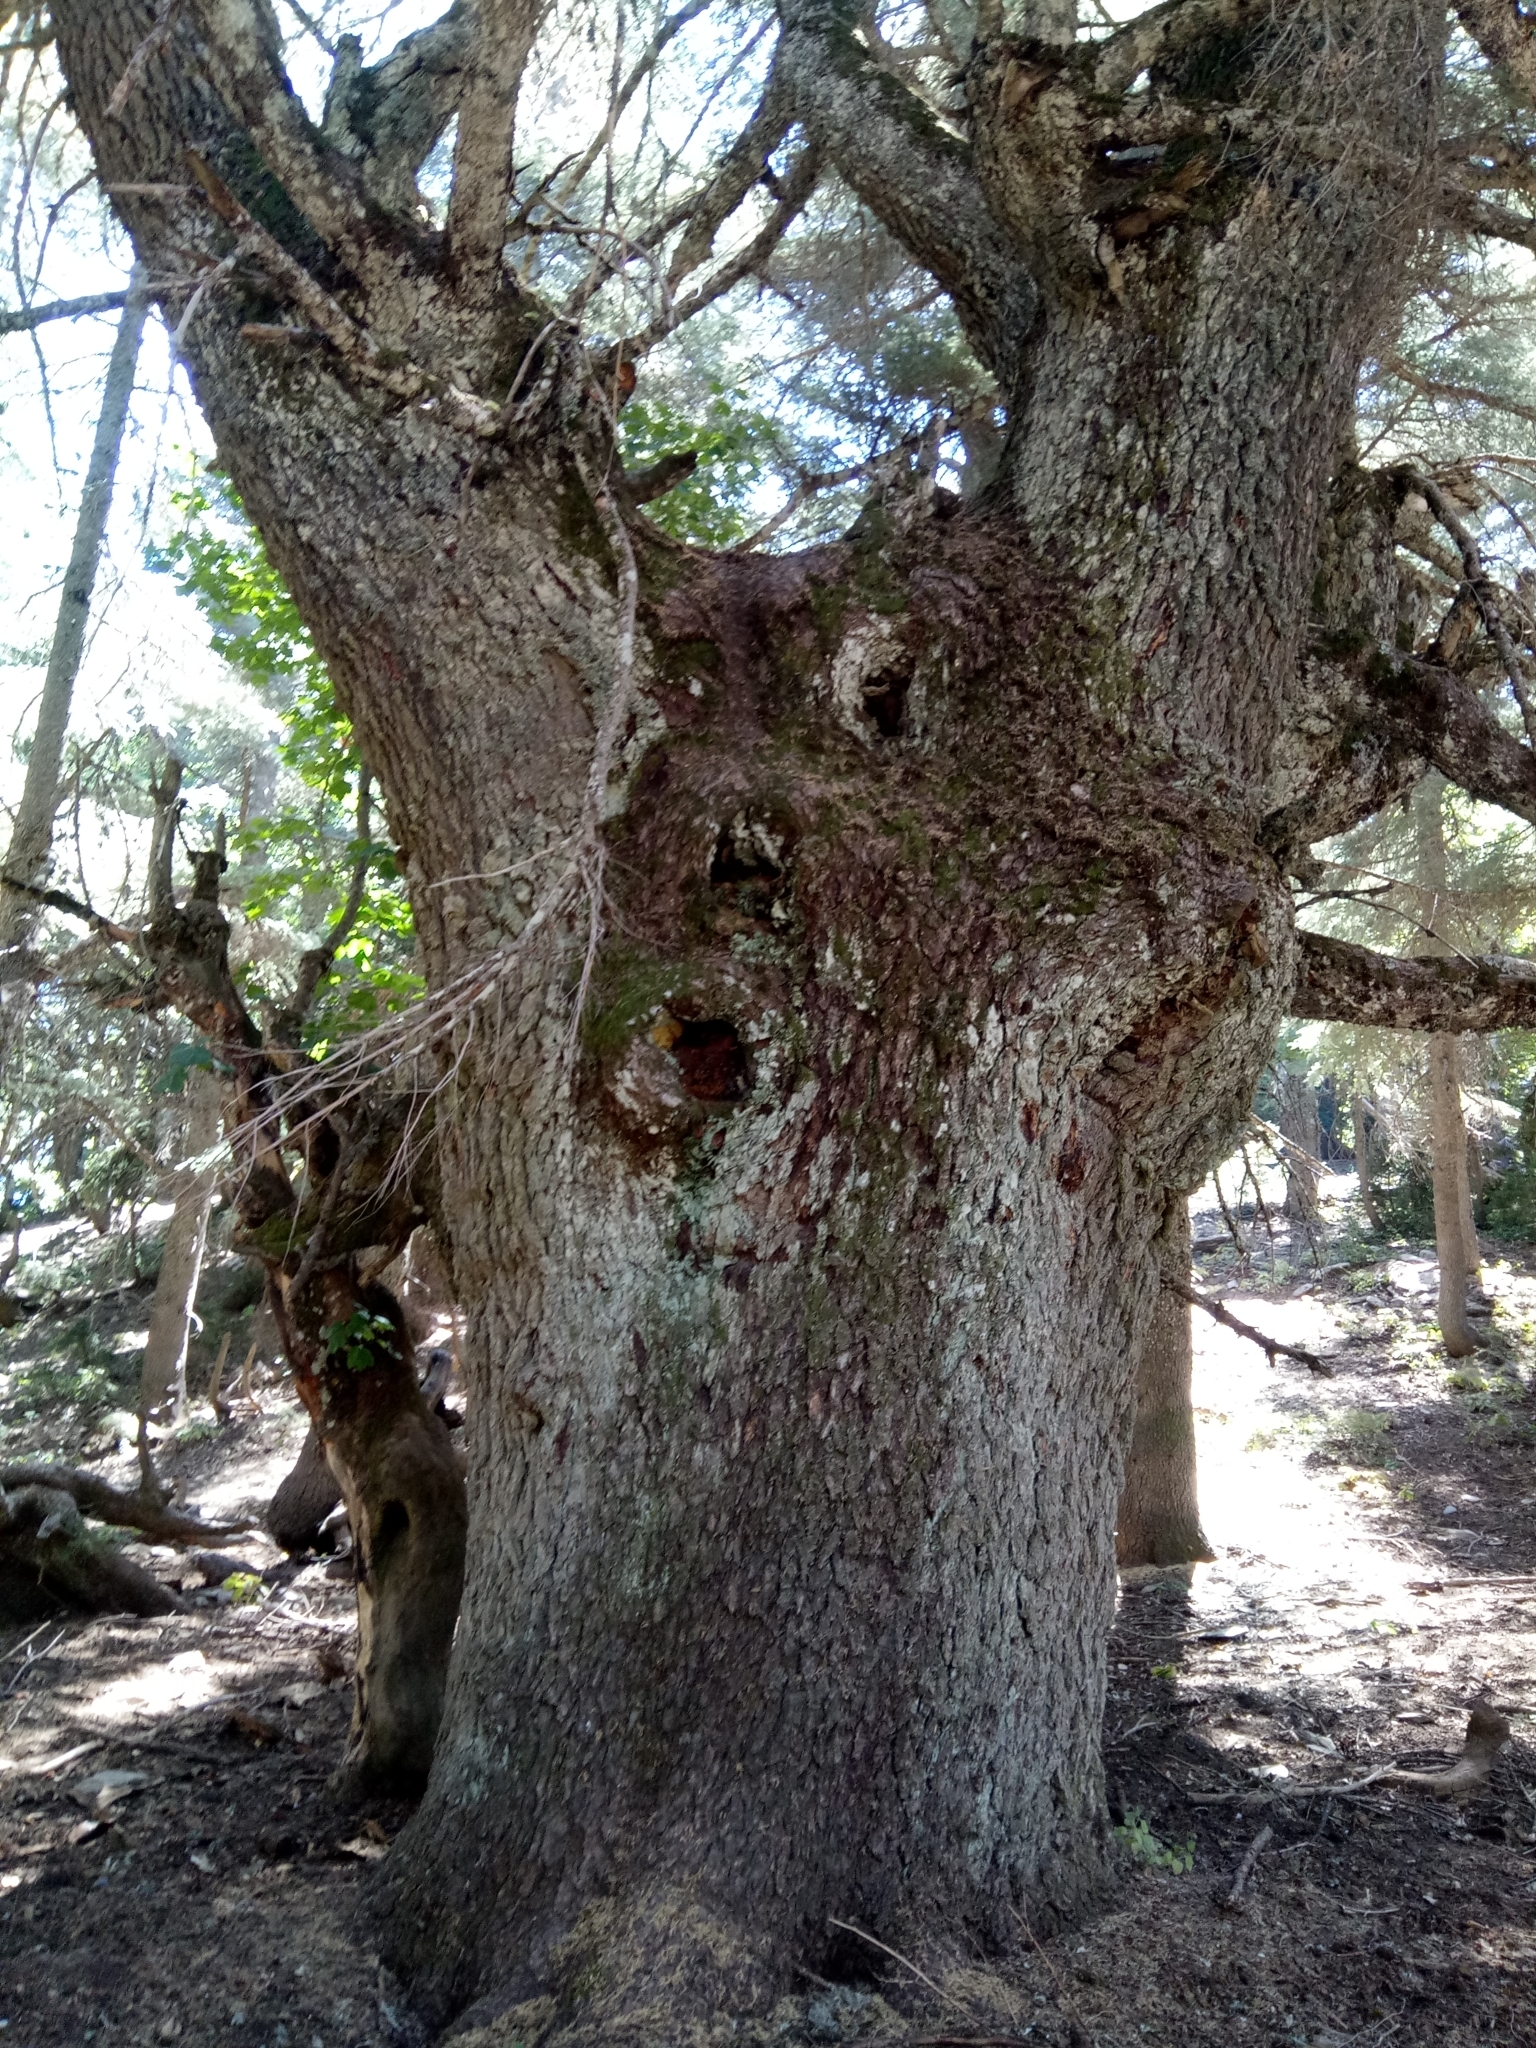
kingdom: Plantae
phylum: Tracheophyta
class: Pinopsida
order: Pinales
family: Pinaceae
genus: Cedrus
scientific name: Cedrus atlantica
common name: Atlas cedar
